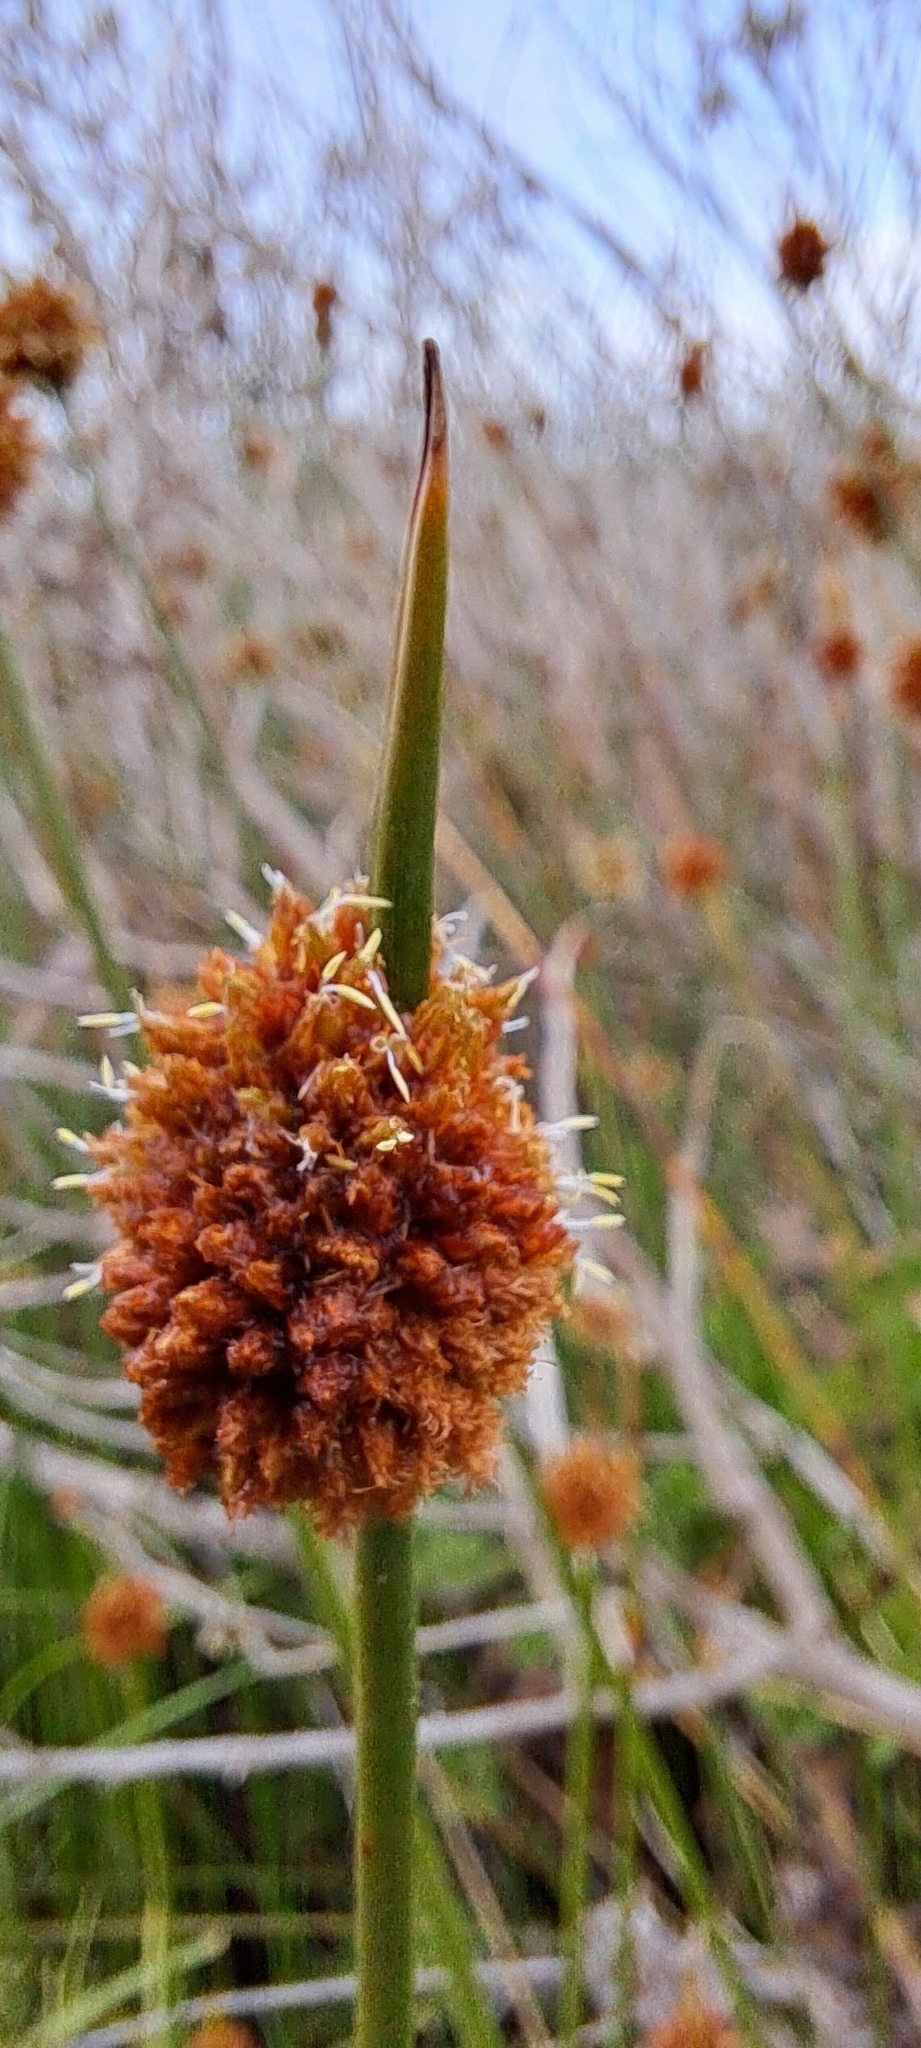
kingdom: Plantae
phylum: Tracheophyta
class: Liliopsida
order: Poales
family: Cyperaceae
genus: Ficinia
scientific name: Ficinia nodosa
